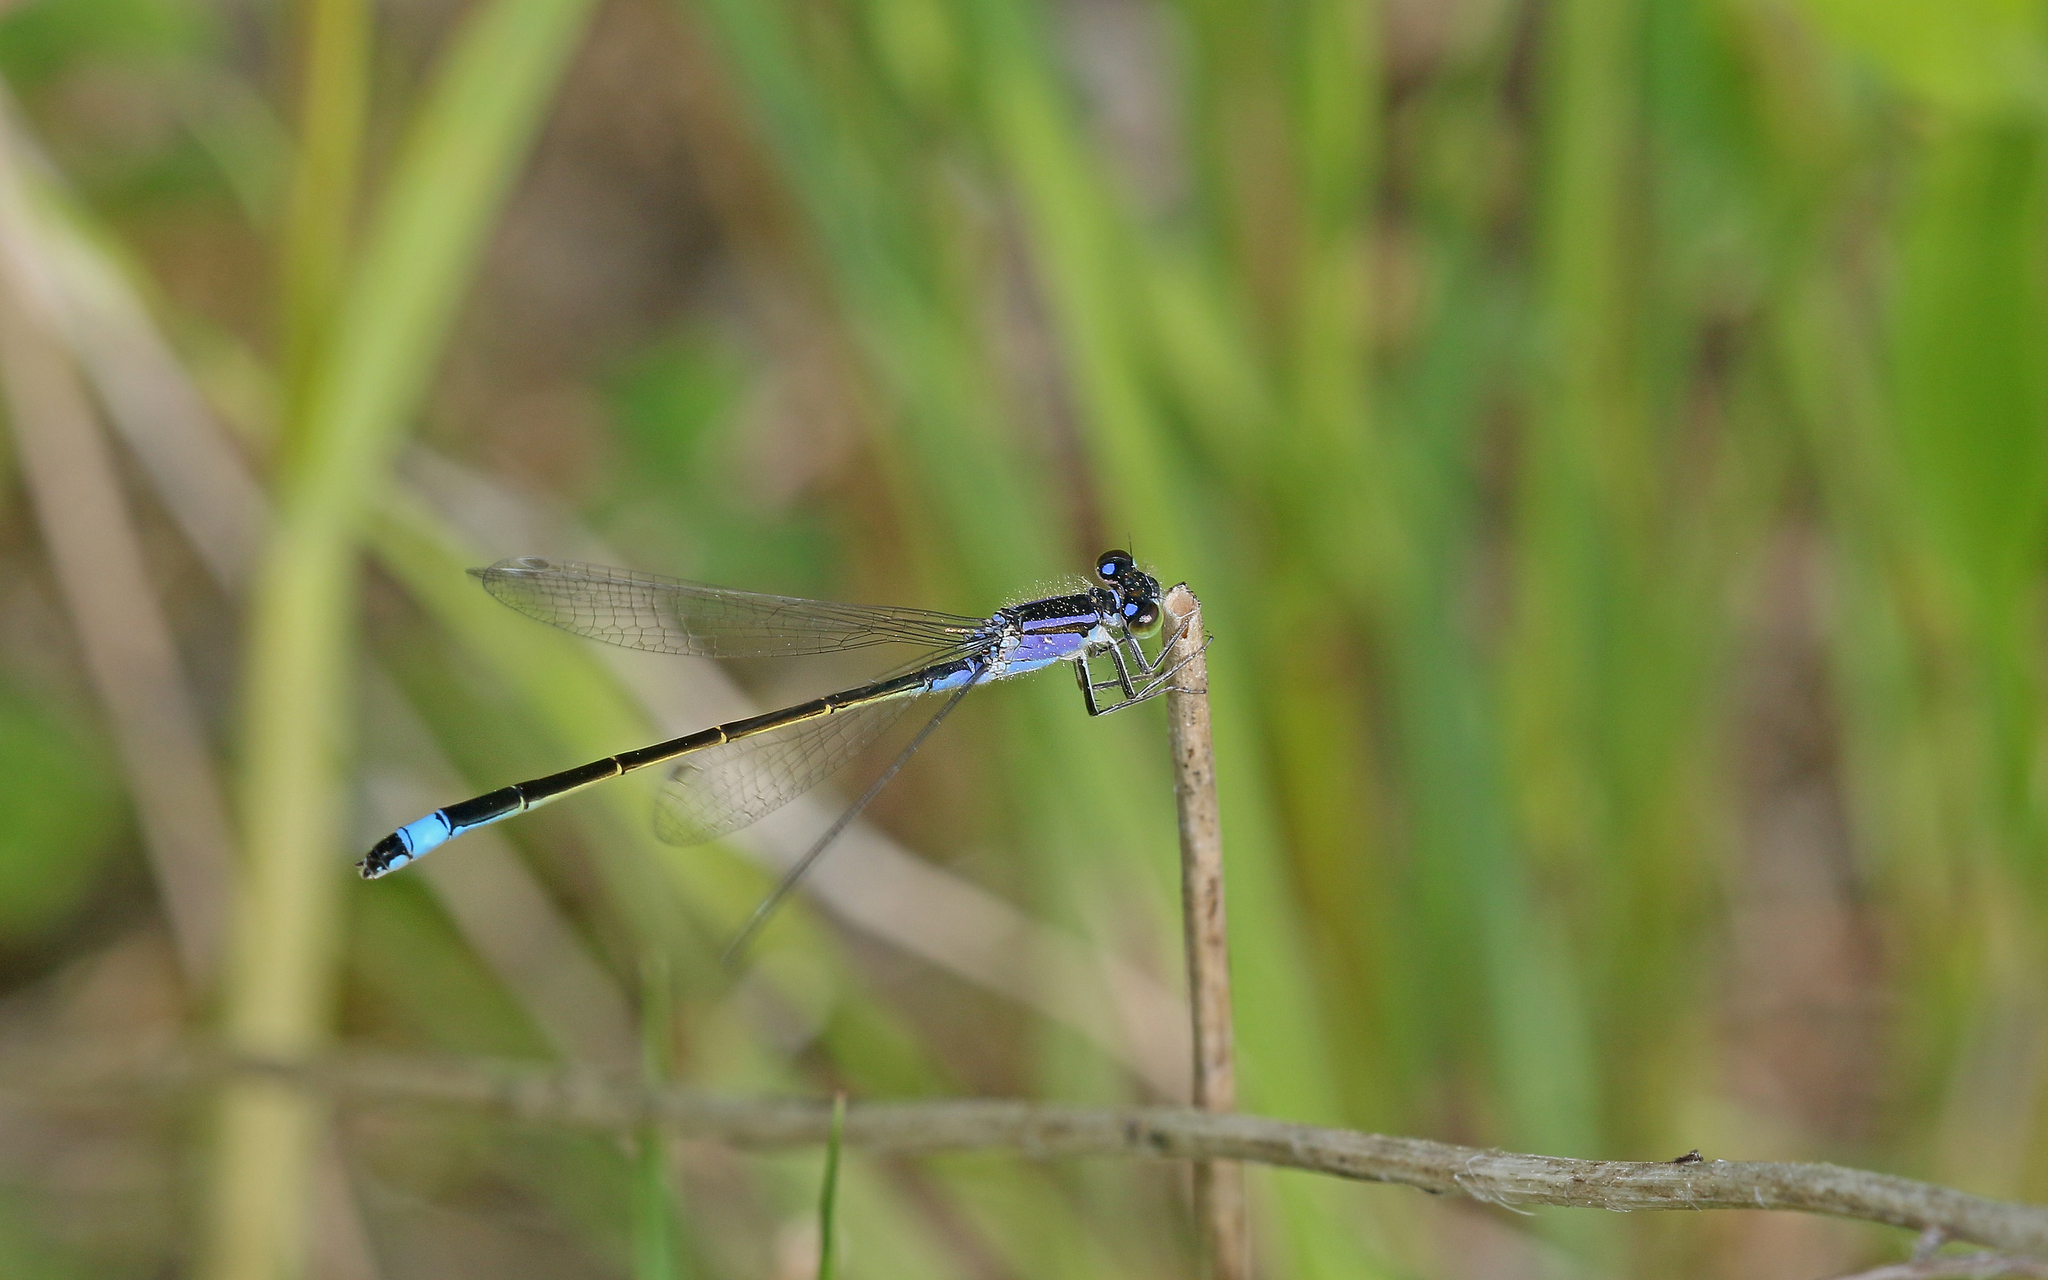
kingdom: Animalia
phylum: Arthropoda
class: Insecta
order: Odonata
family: Coenagrionidae
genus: Ischnura
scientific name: Ischnura elegans
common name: Blue-tailed damselfly
